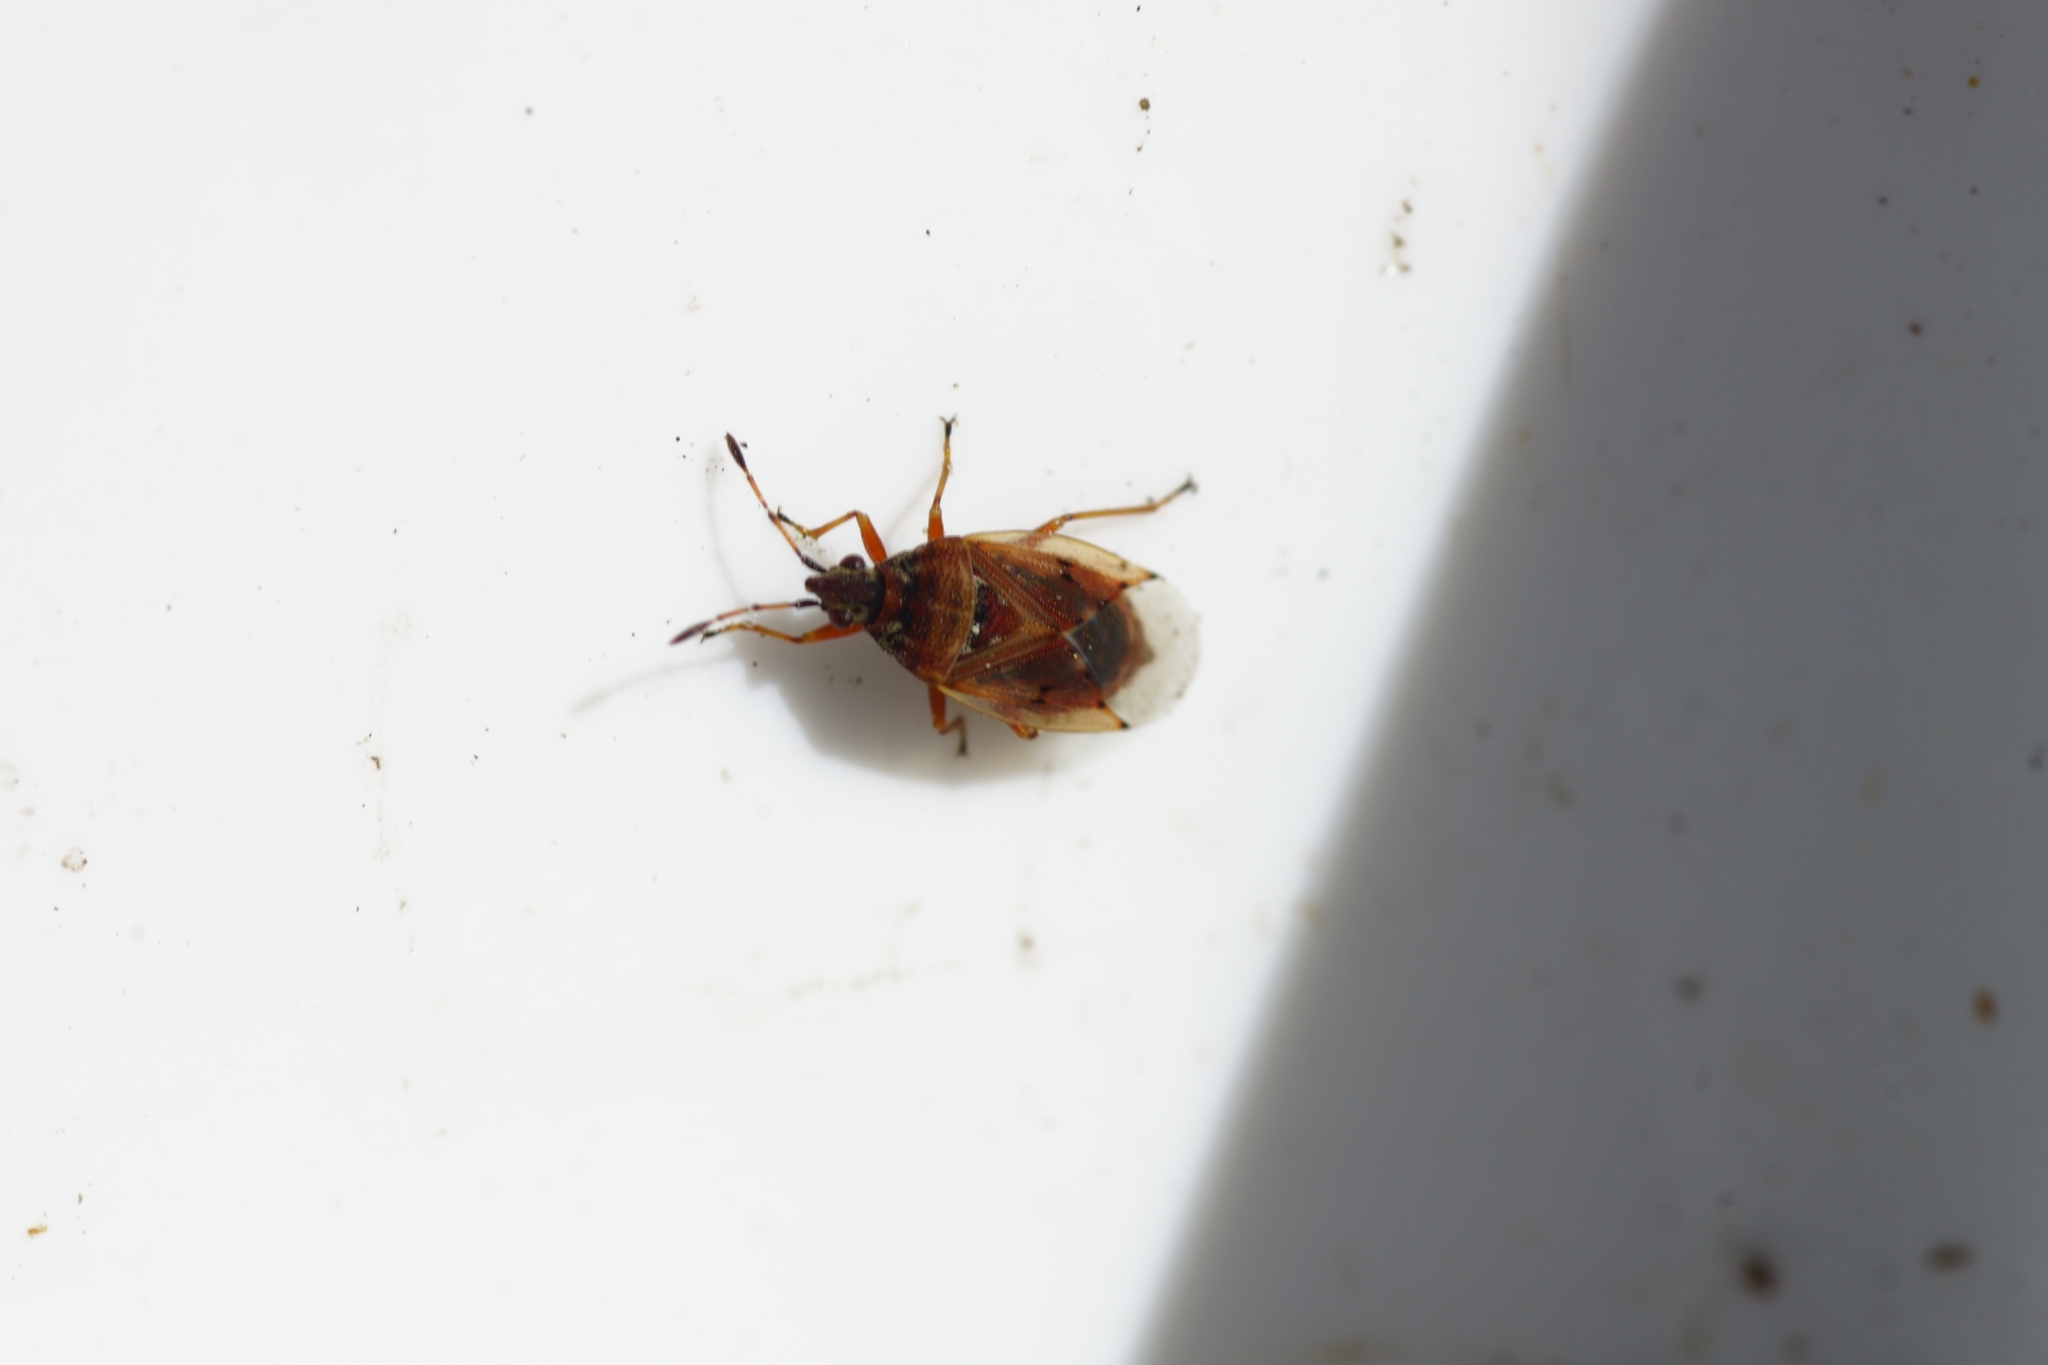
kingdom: Animalia
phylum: Arthropoda
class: Insecta
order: Hemiptera
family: Lygaeidae
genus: Kleidocerys
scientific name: Kleidocerys resedae
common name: Birch catkin bug
